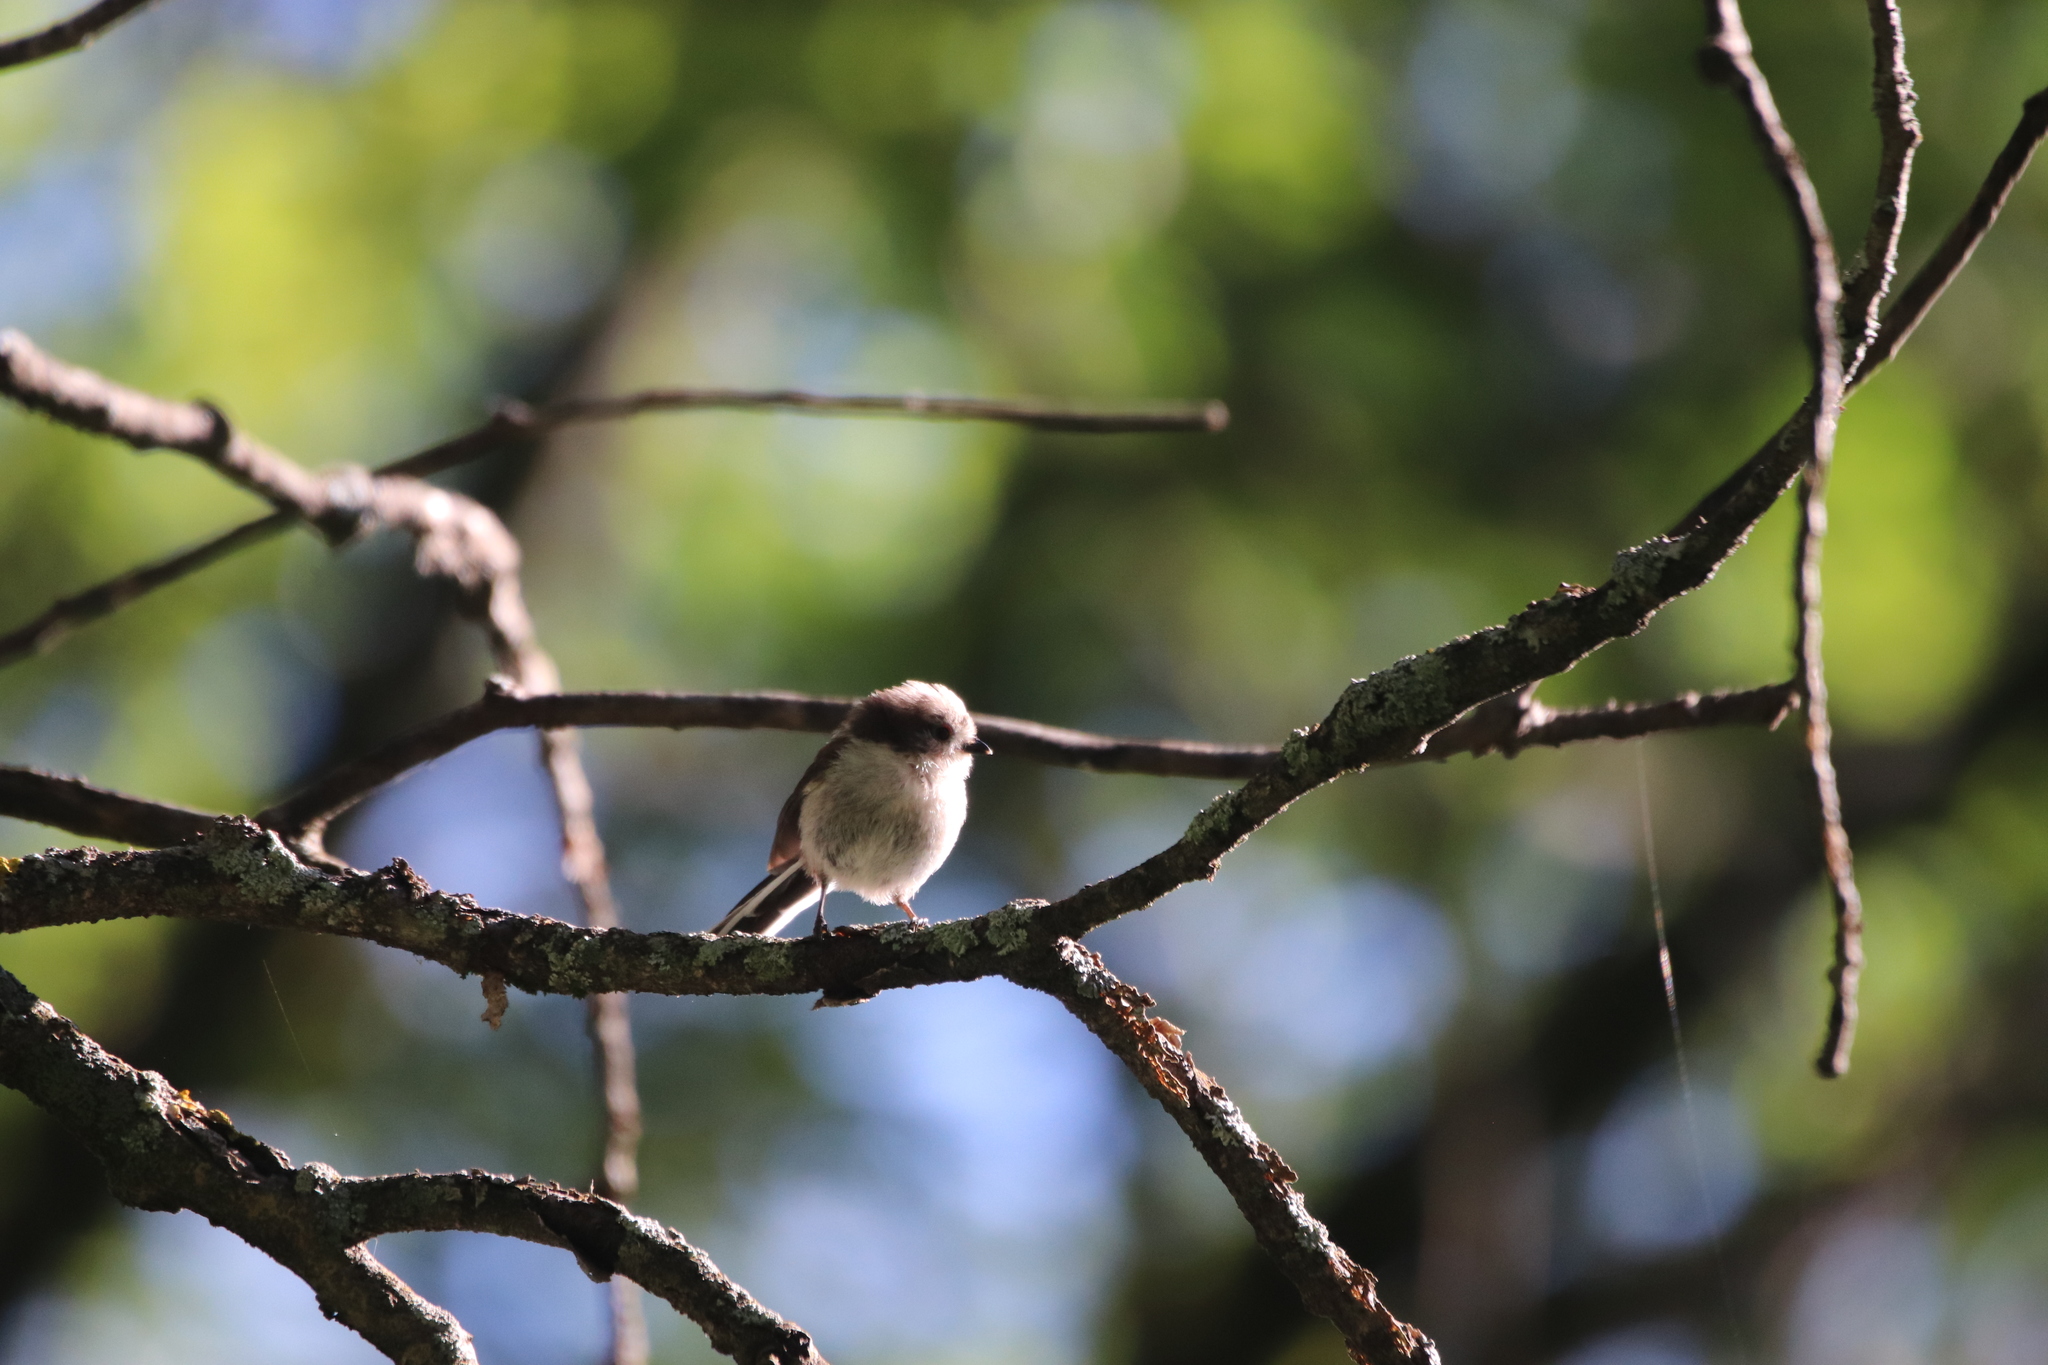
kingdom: Animalia
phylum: Chordata
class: Aves
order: Passeriformes
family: Aegithalidae
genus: Aegithalos
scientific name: Aegithalos caudatus
